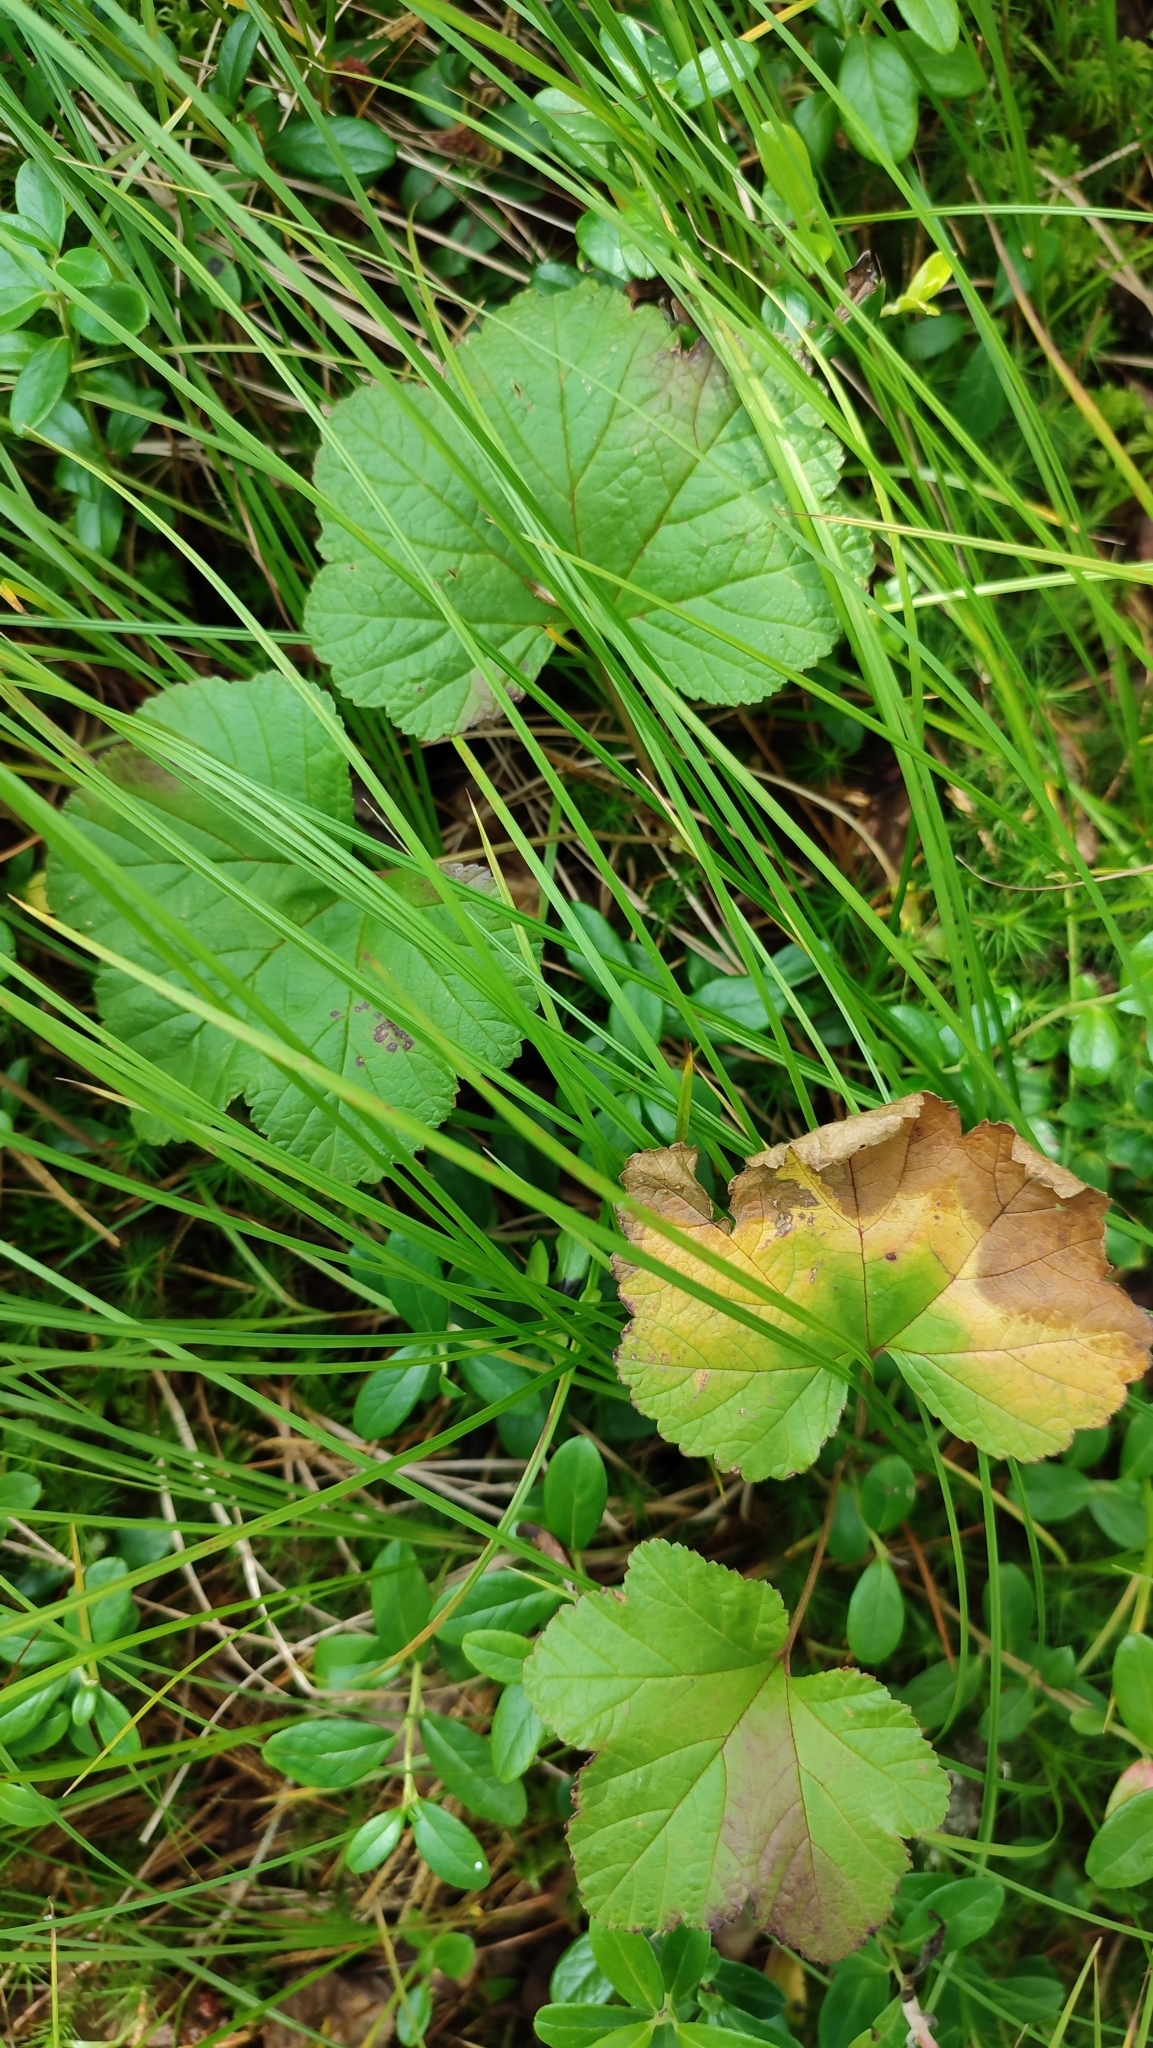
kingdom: Plantae
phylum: Tracheophyta
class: Magnoliopsida
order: Rosales
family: Rosaceae
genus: Rubus
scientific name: Rubus chamaemorus
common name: Cloudberry
